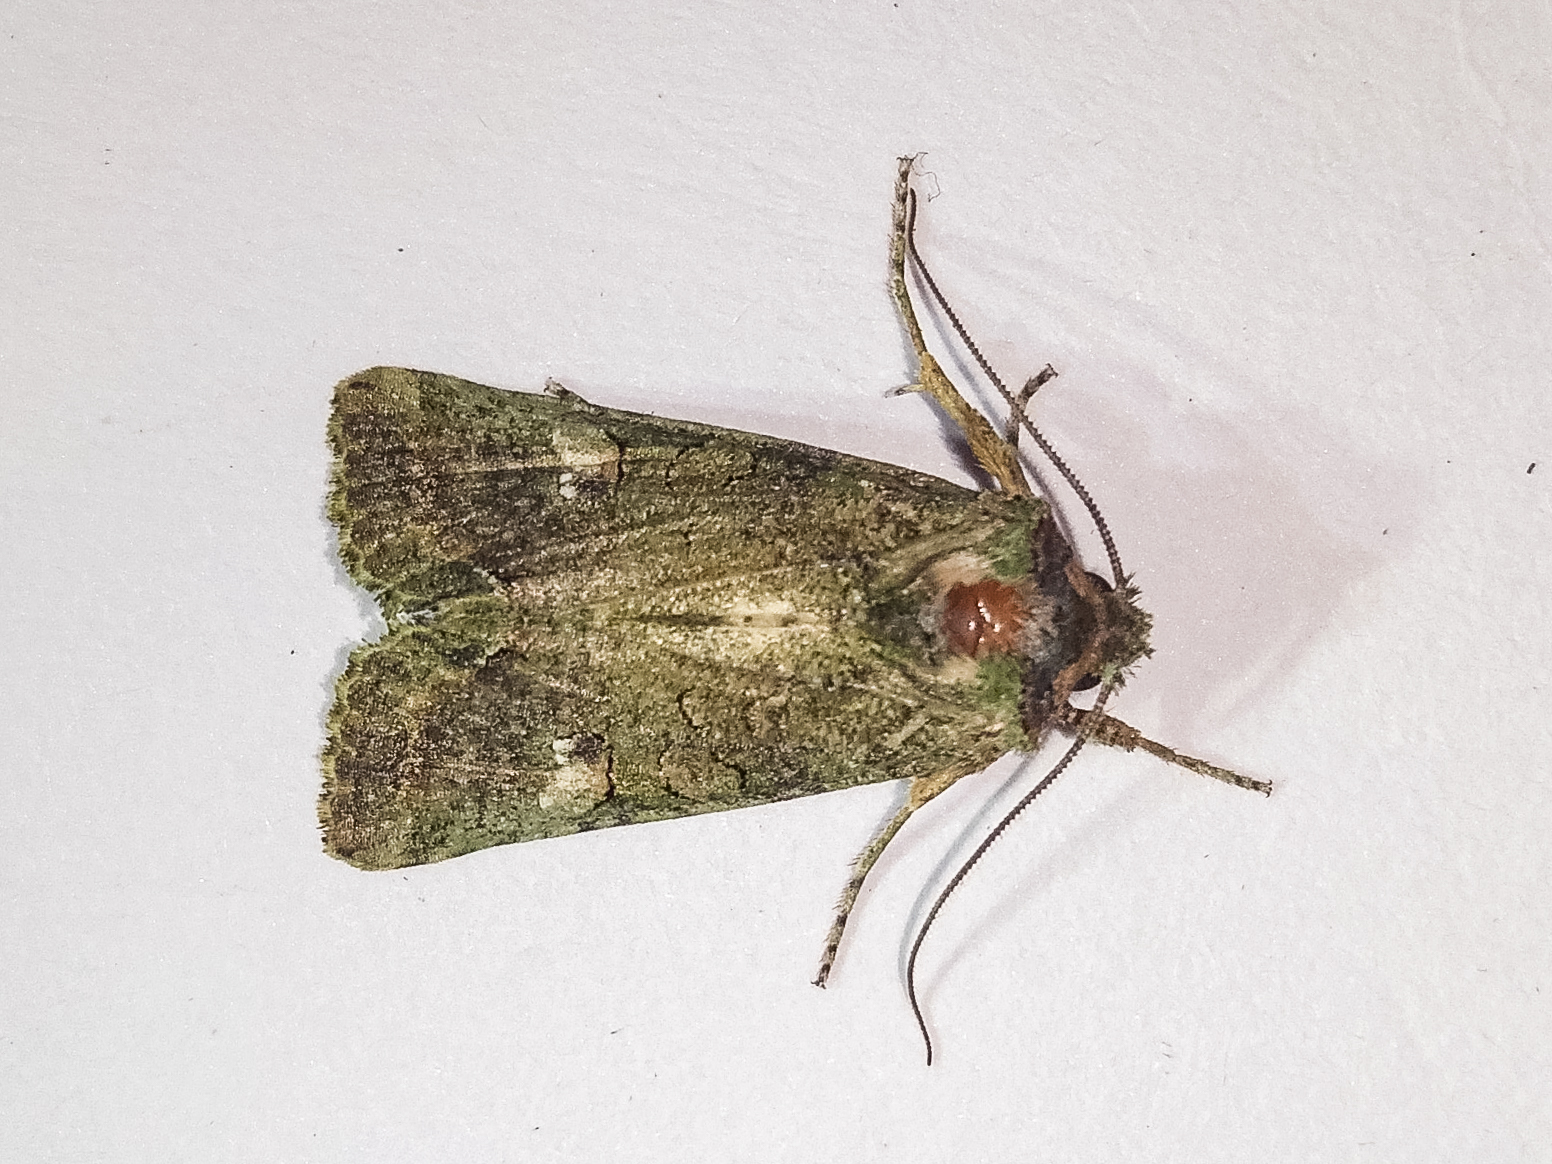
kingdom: Animalia
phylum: Arthropoda
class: Insecta
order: Lepidoptera
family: Noctuidae
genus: Meterana
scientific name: Meterana levis
